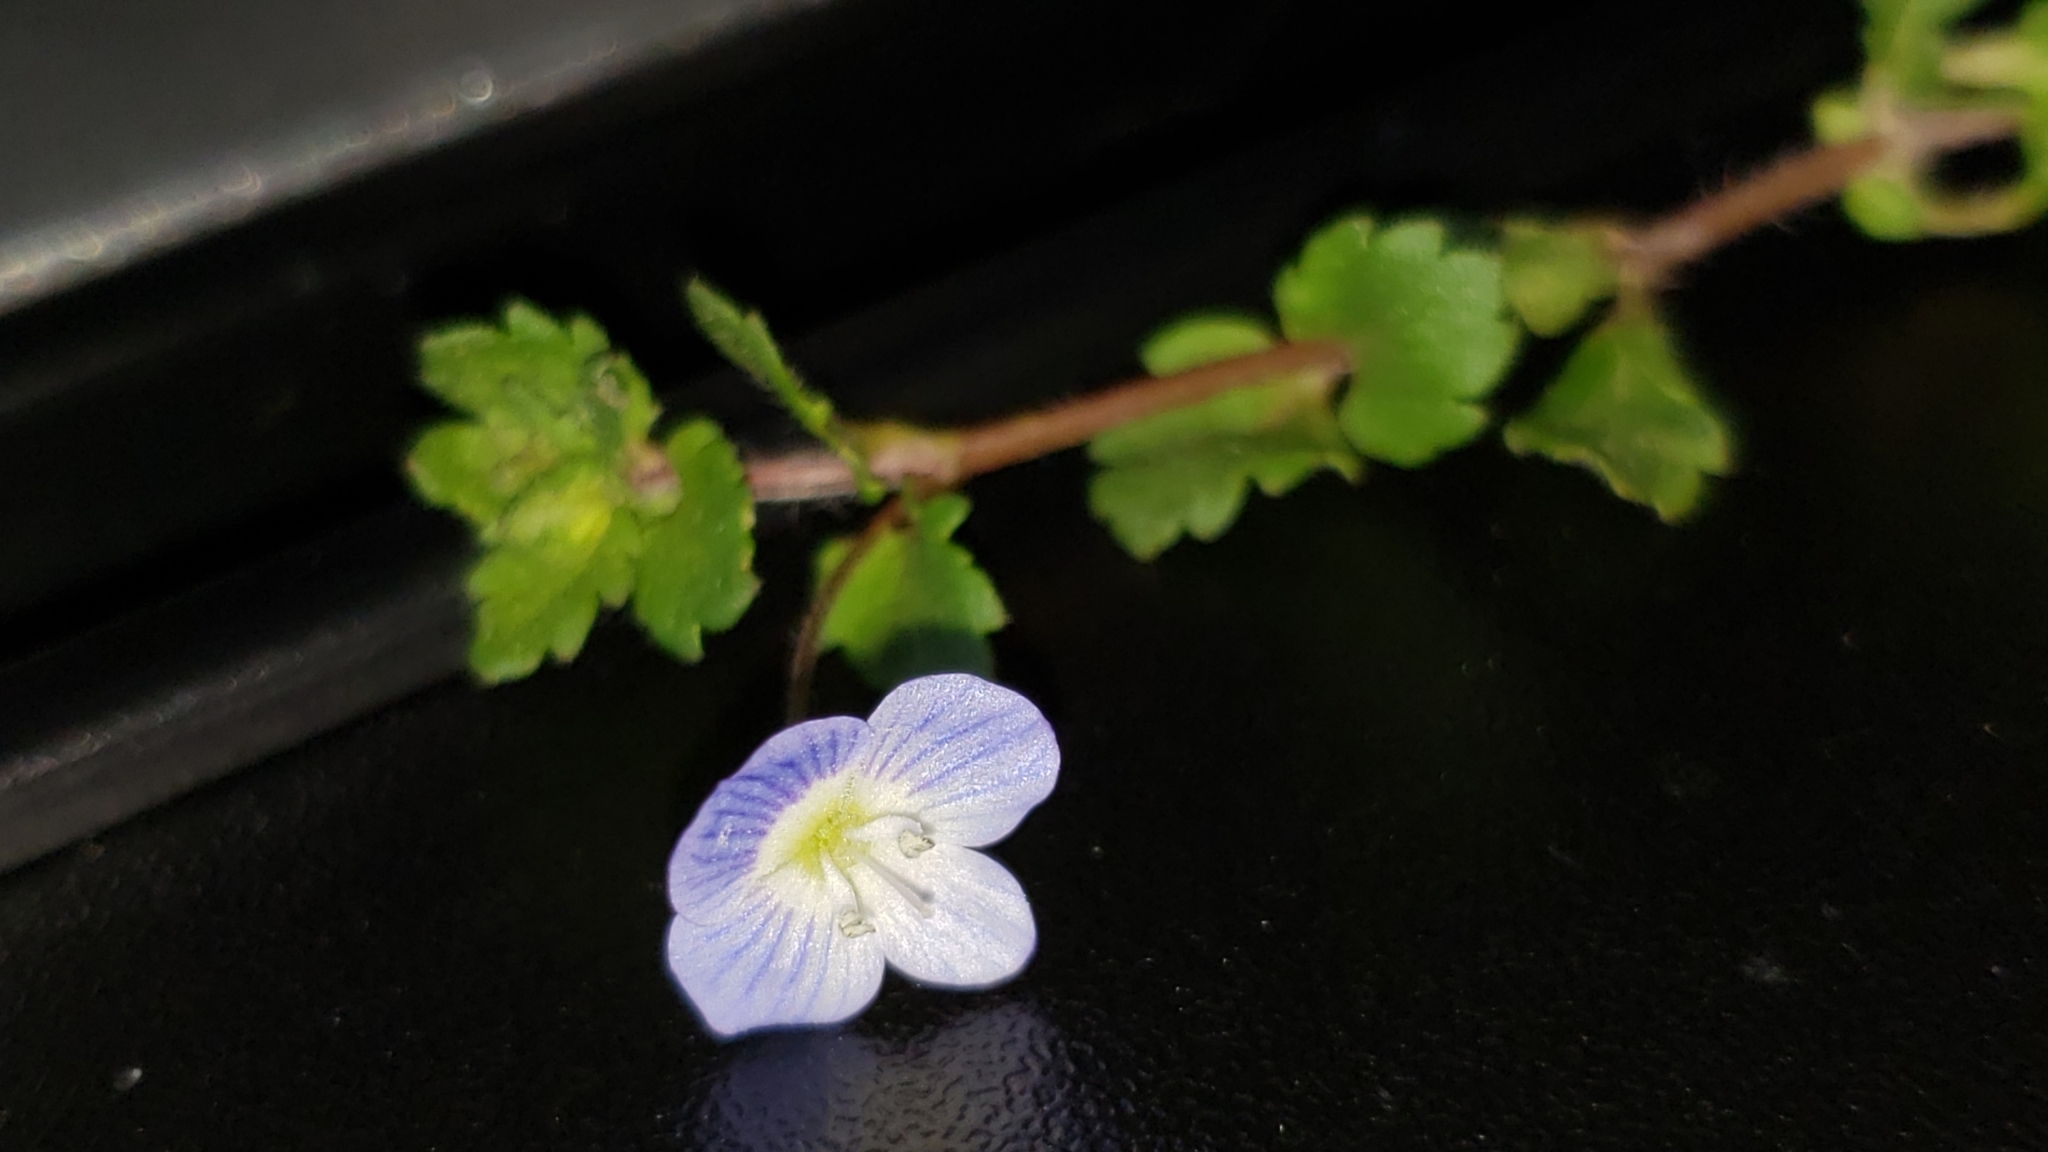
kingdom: Plantae
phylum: Tracheophyta
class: Magnoliopsida
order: Lamiales
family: Plantaginaceae
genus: Veronica
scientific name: Veronica persica
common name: Common field-speedwell
